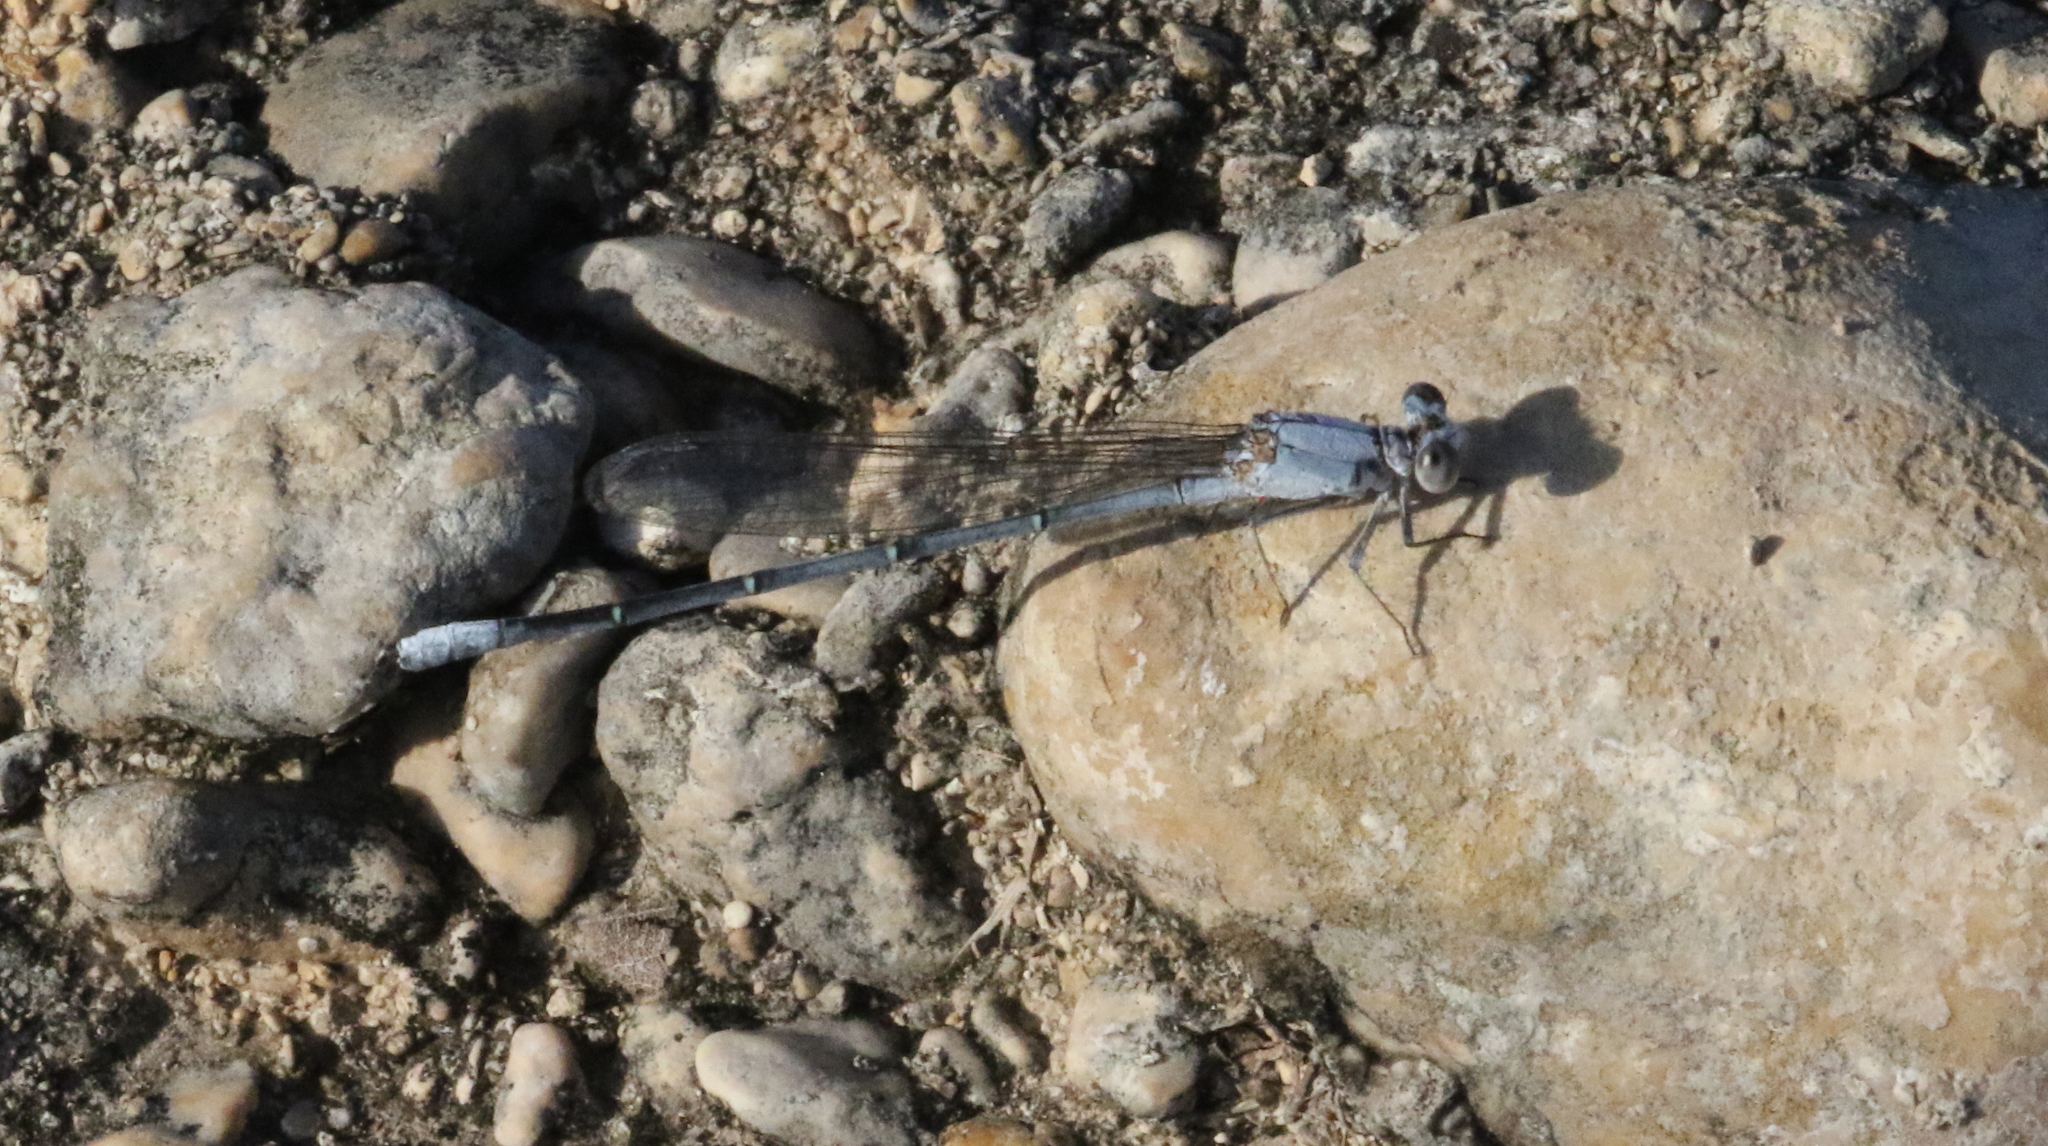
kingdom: Animalia
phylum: Arthropoda
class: Insecta
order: Odonata
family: Coenagrionidae
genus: Argia
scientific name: Argia moesta
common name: Powdered dancer
